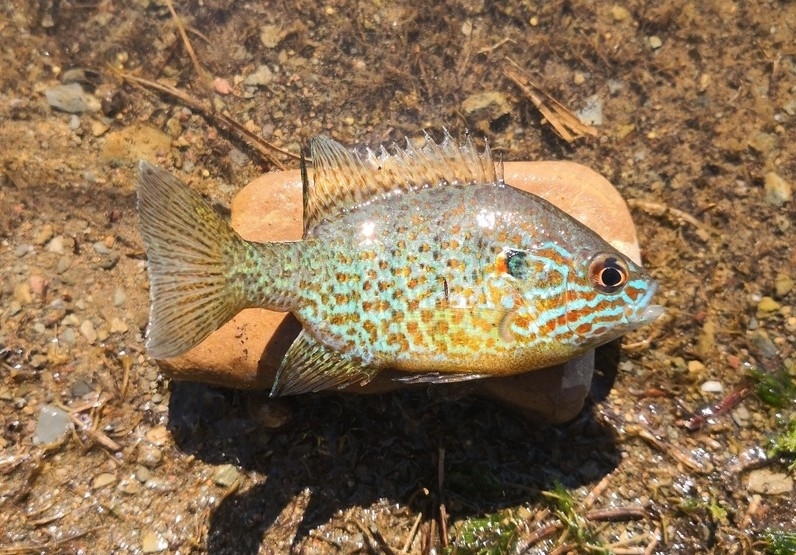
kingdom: Animalia
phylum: Chordata
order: Perciformes
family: Centrarchidae
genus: Lepomis
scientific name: Lepomis gibbosus
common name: Pumpkinseed
